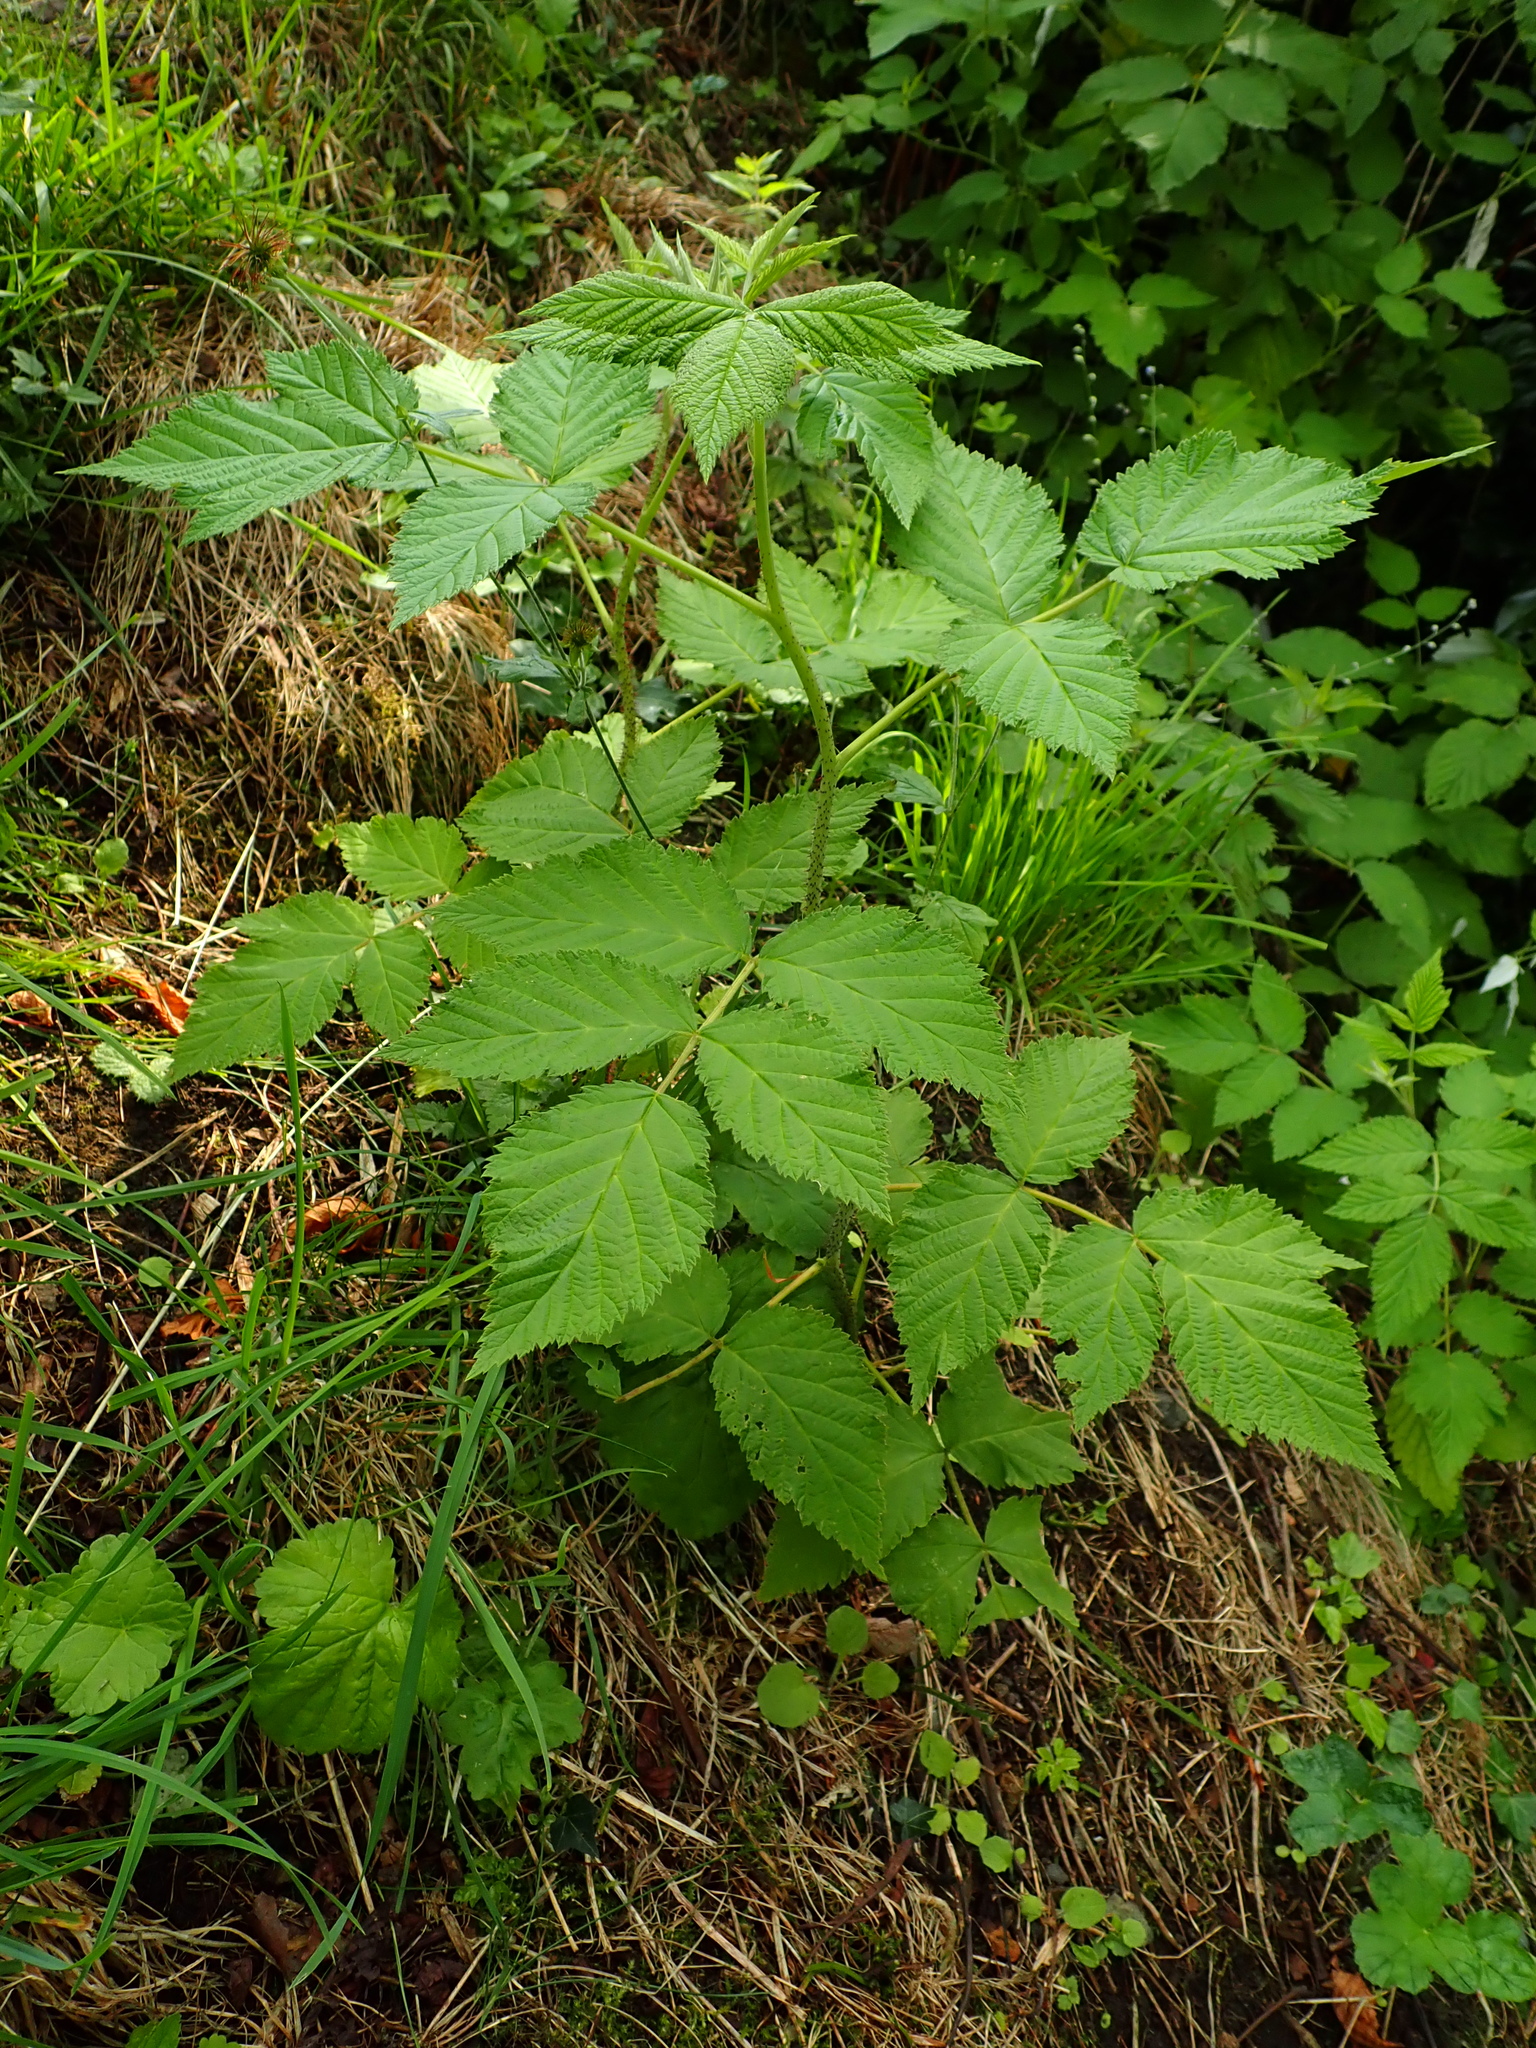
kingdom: Plantae
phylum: Tracheophyta
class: Magnoliopsida
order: Rosales
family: Rosaceae
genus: Rubus
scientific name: Rubus idaeus
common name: Raspberry
